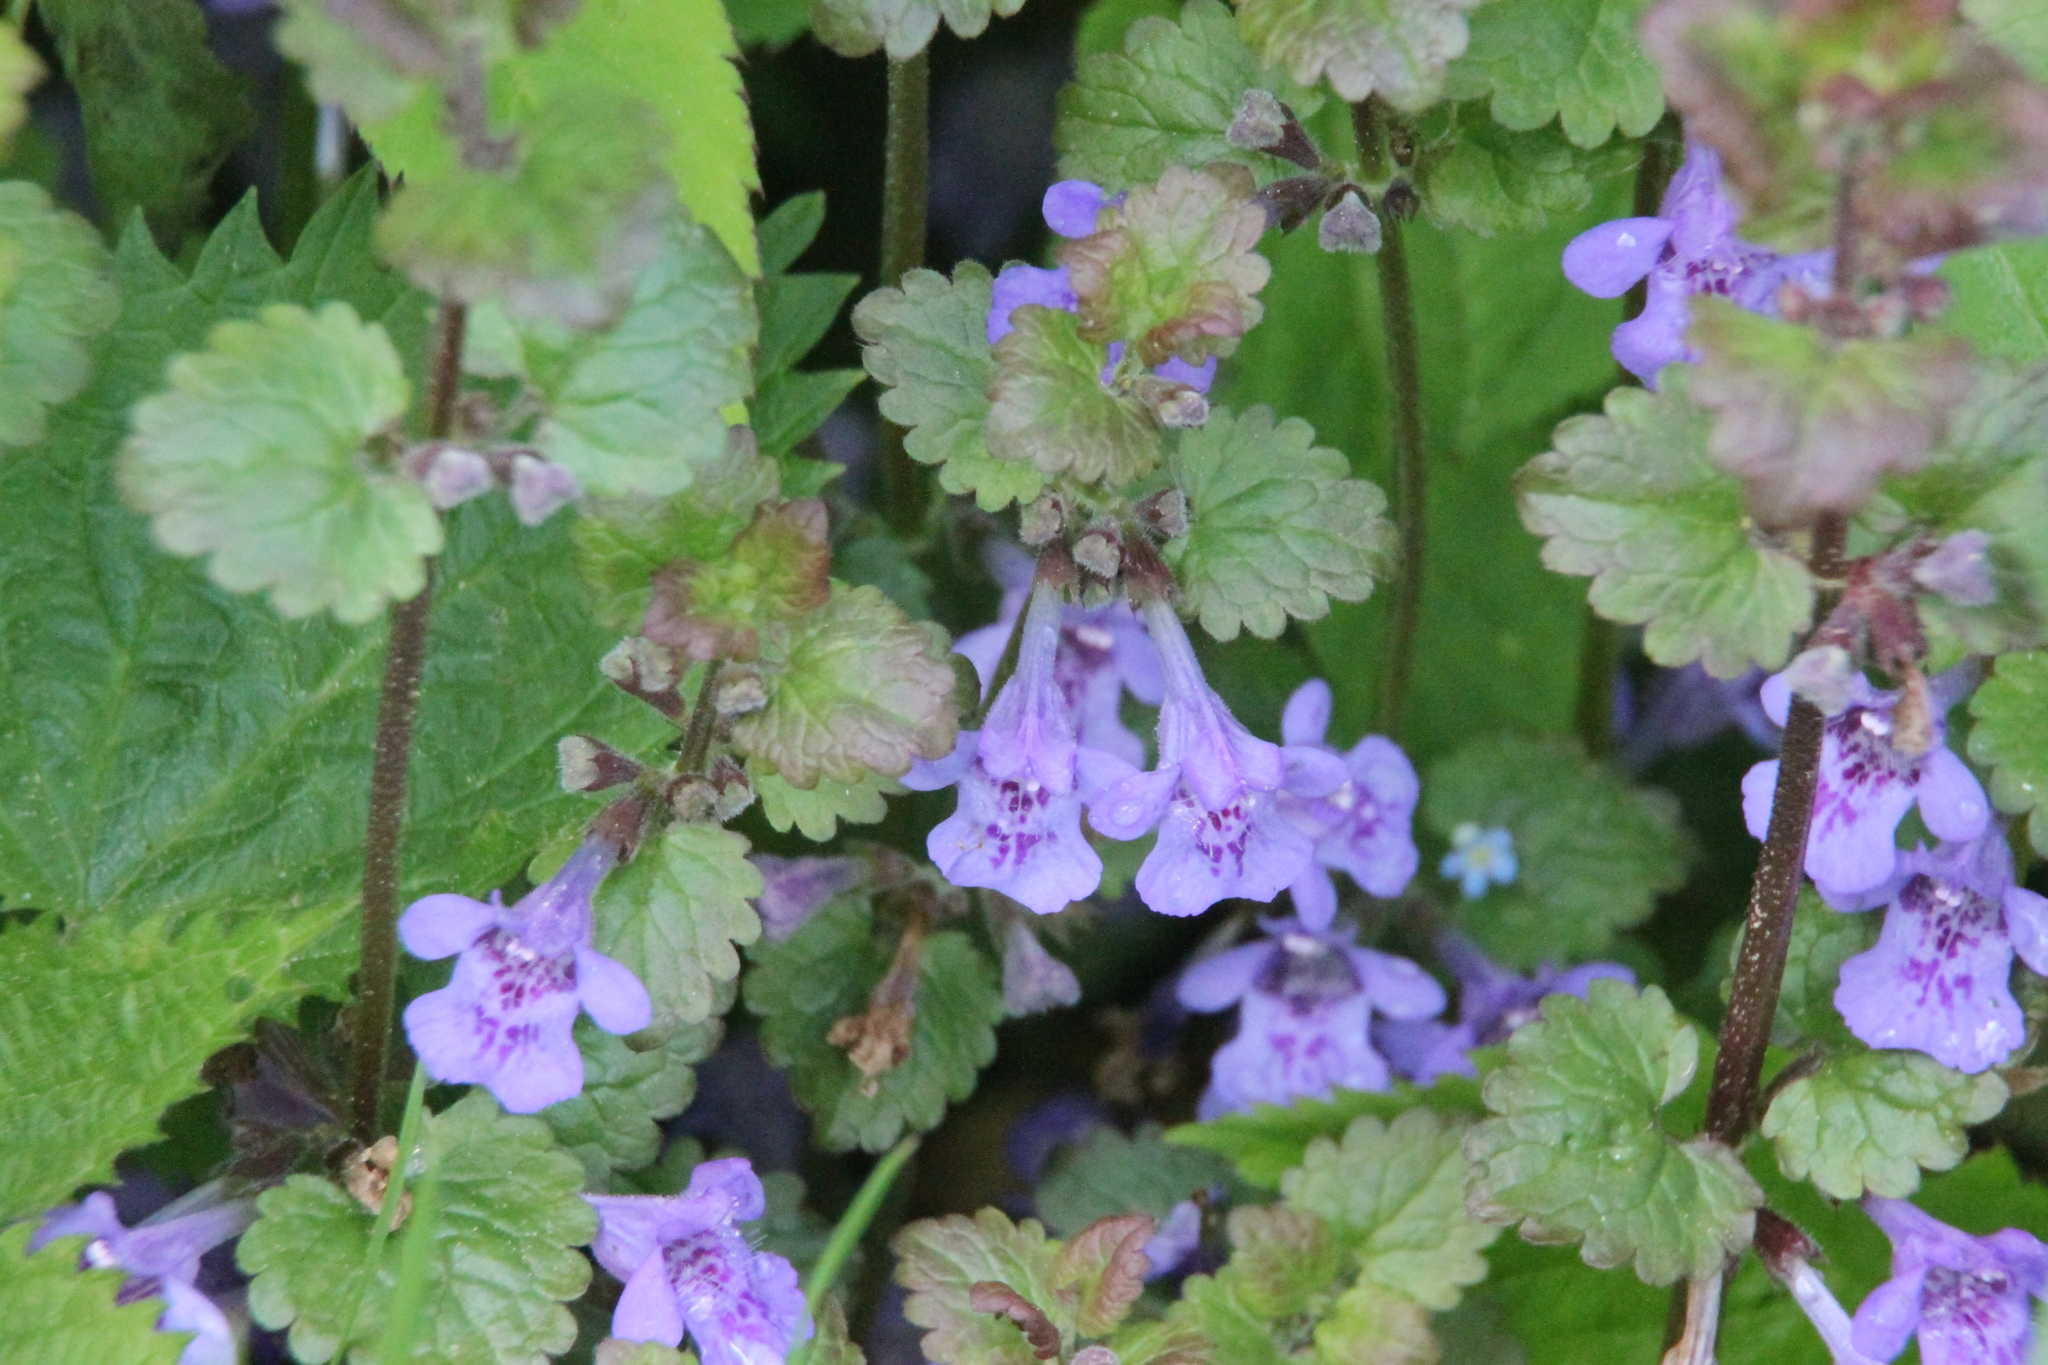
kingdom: Plantae
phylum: Tracheophyta
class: Magnoliopsida
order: Lamiales
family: Lamiaceae
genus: Glechoma
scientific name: Glechoma hederacea
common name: Ground ivy
